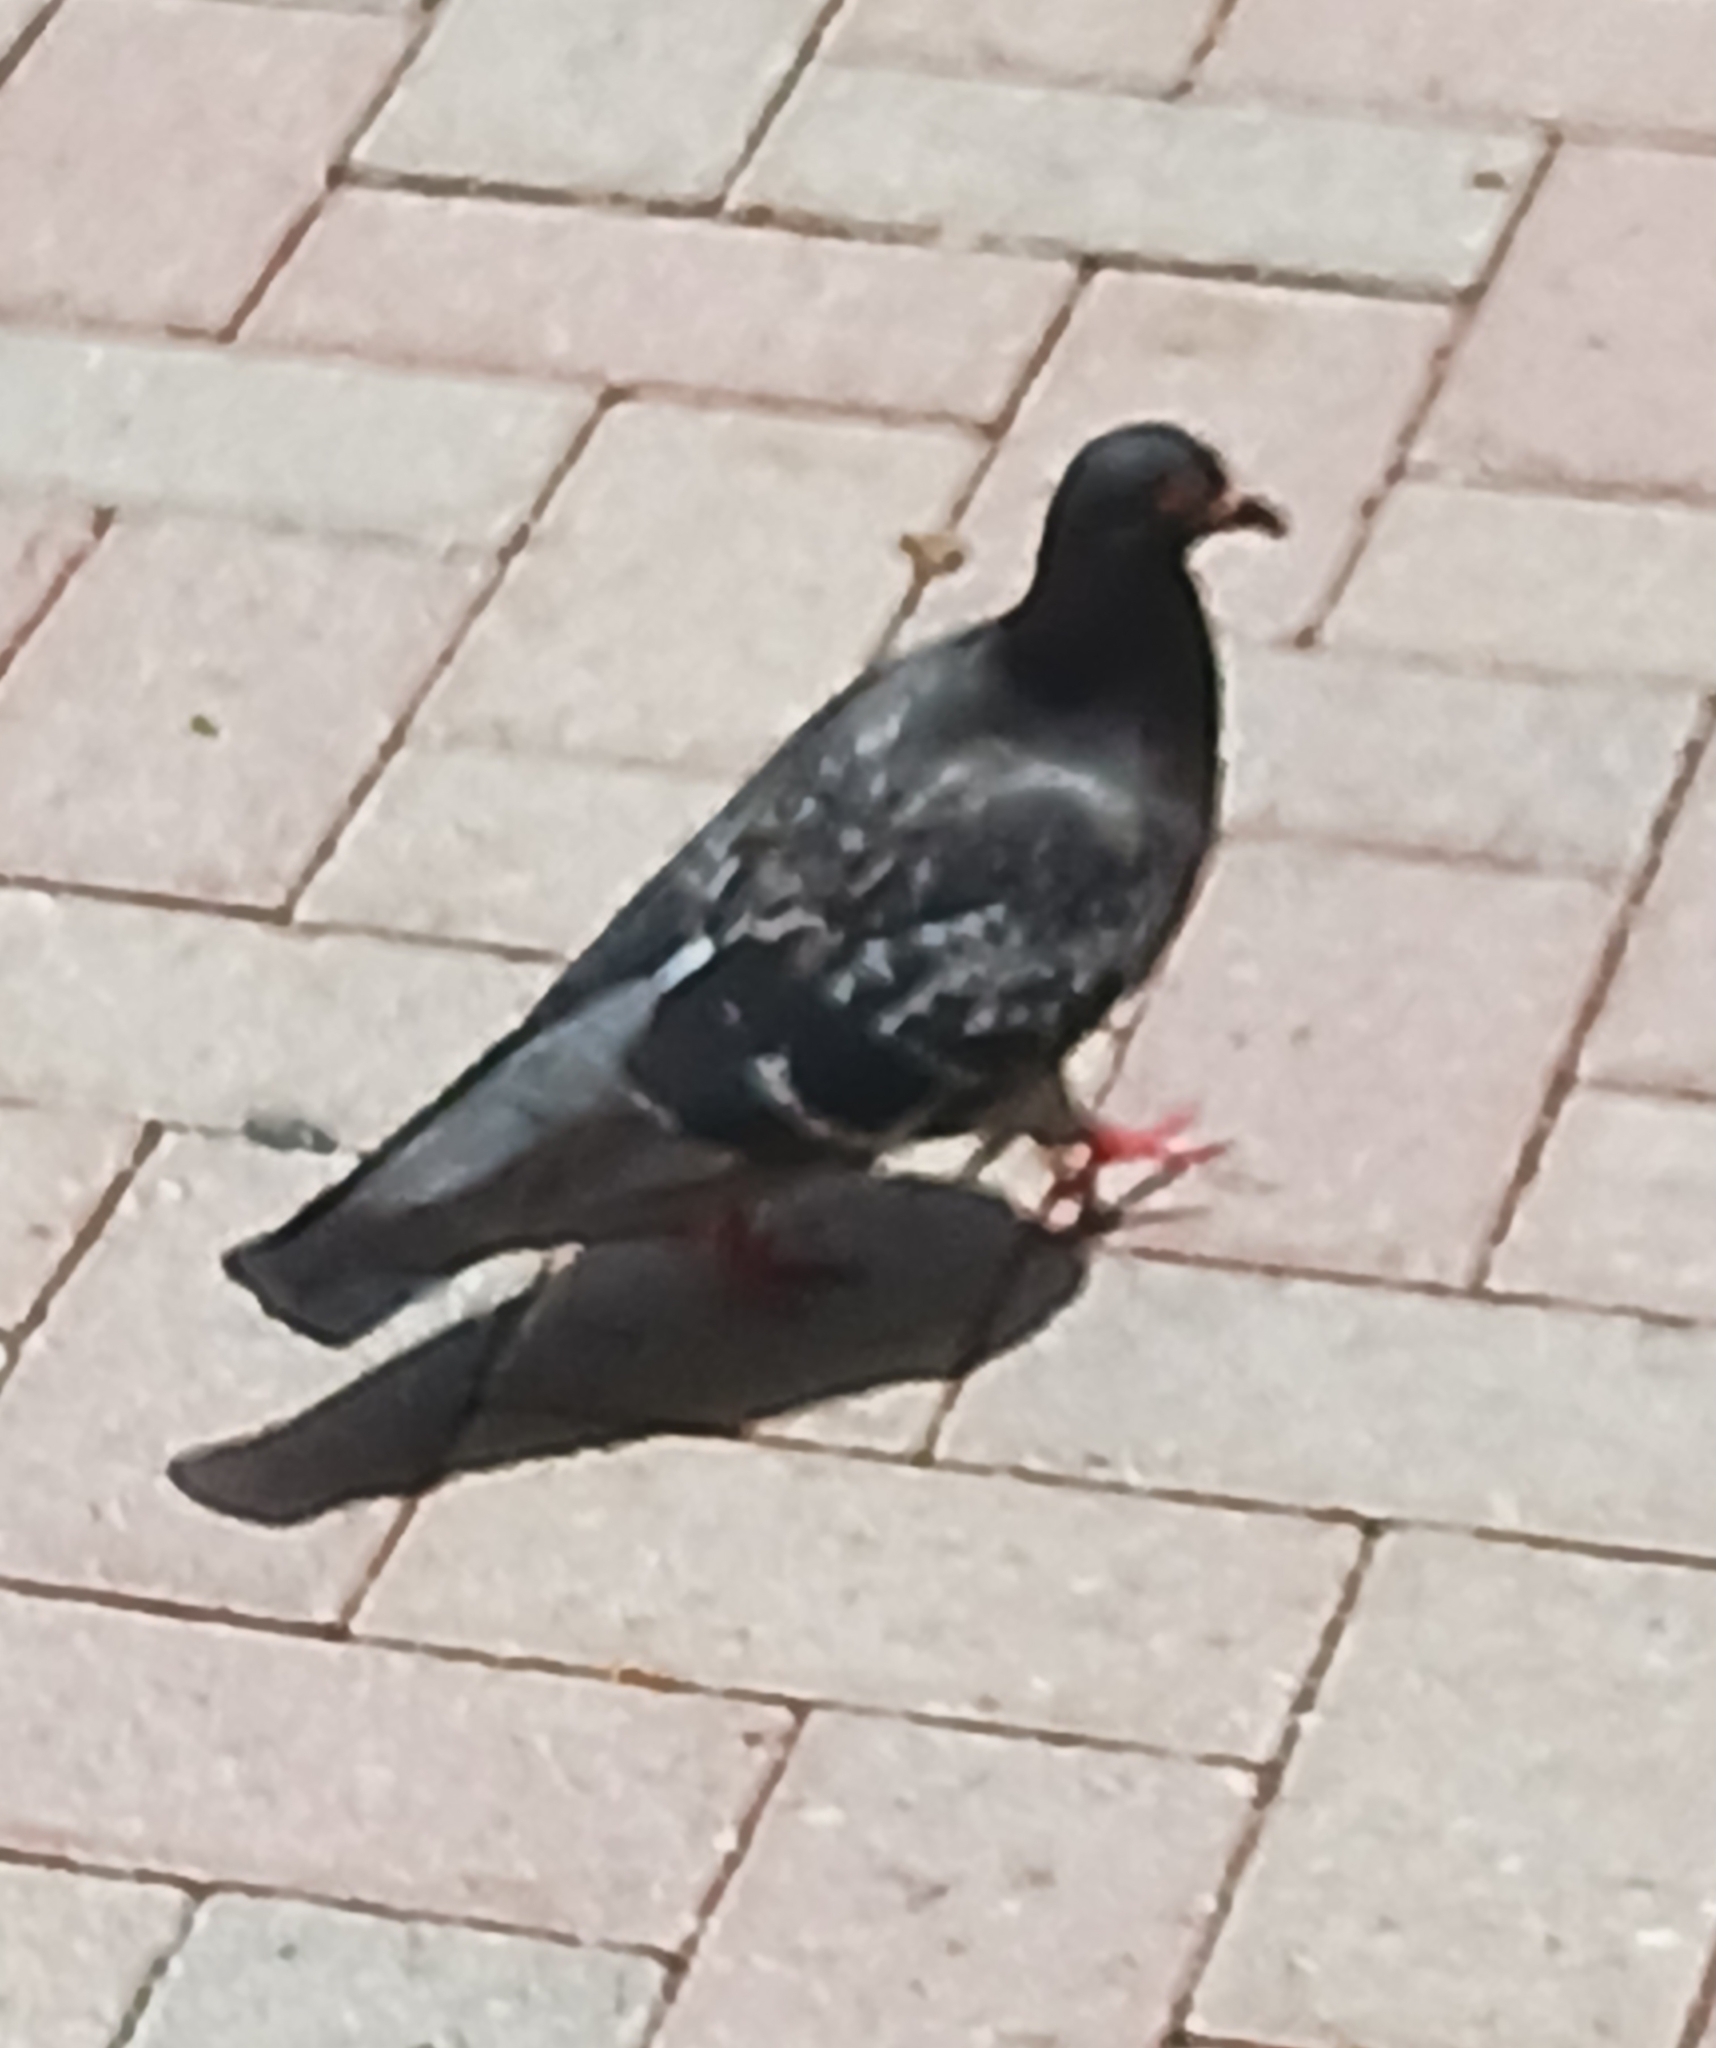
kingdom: Animalia
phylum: Chordata
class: Aves
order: Columbiformes
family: Columbidae
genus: Columba
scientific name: Columba livia
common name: Rock pigeon
